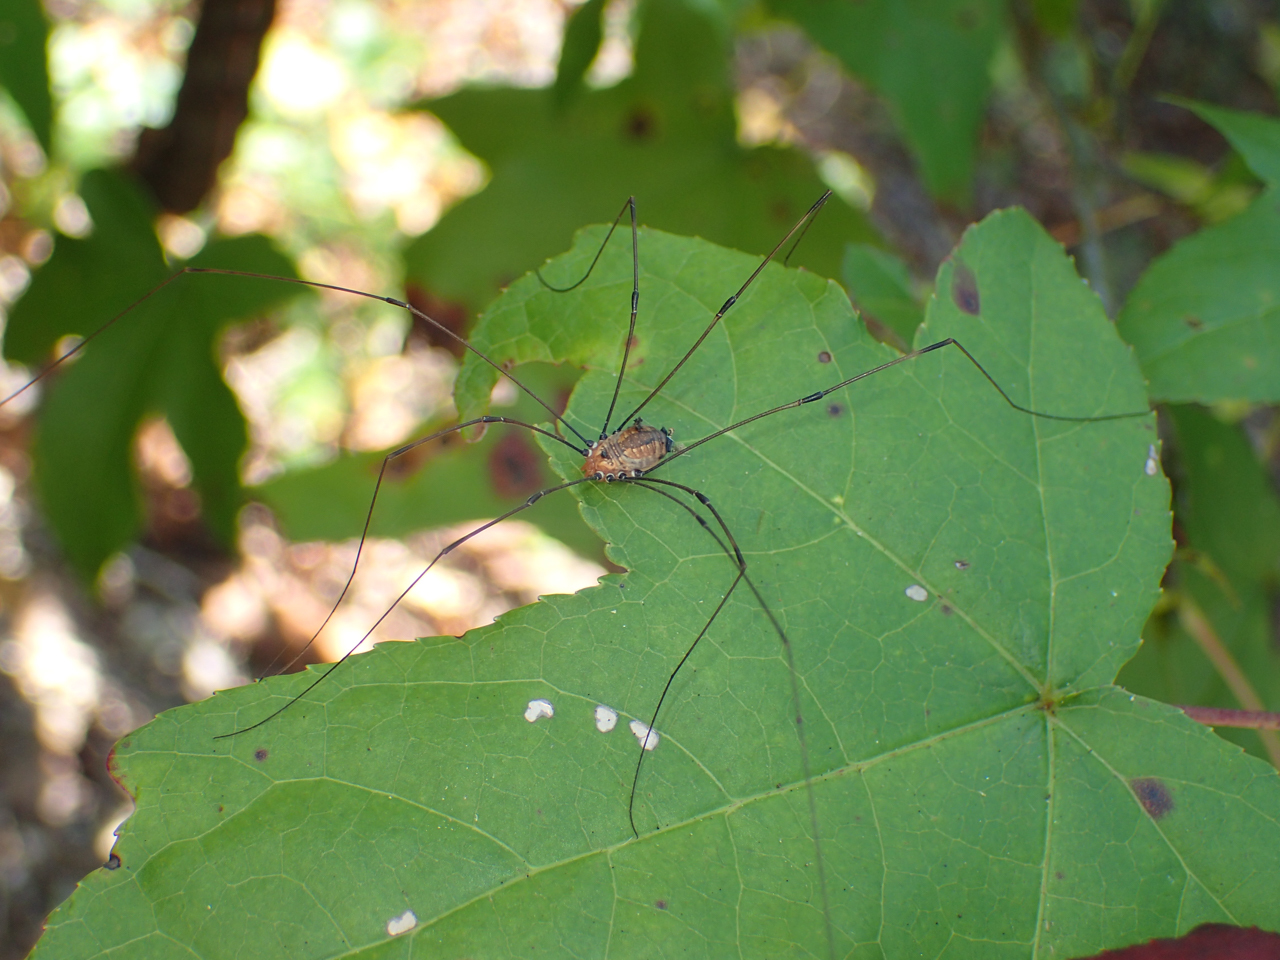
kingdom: Animalia
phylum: Arthropoda
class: Arachnida
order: Opiliones
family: Sclerosomatidae
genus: Leiobunum
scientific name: Leiobunum uxorium
